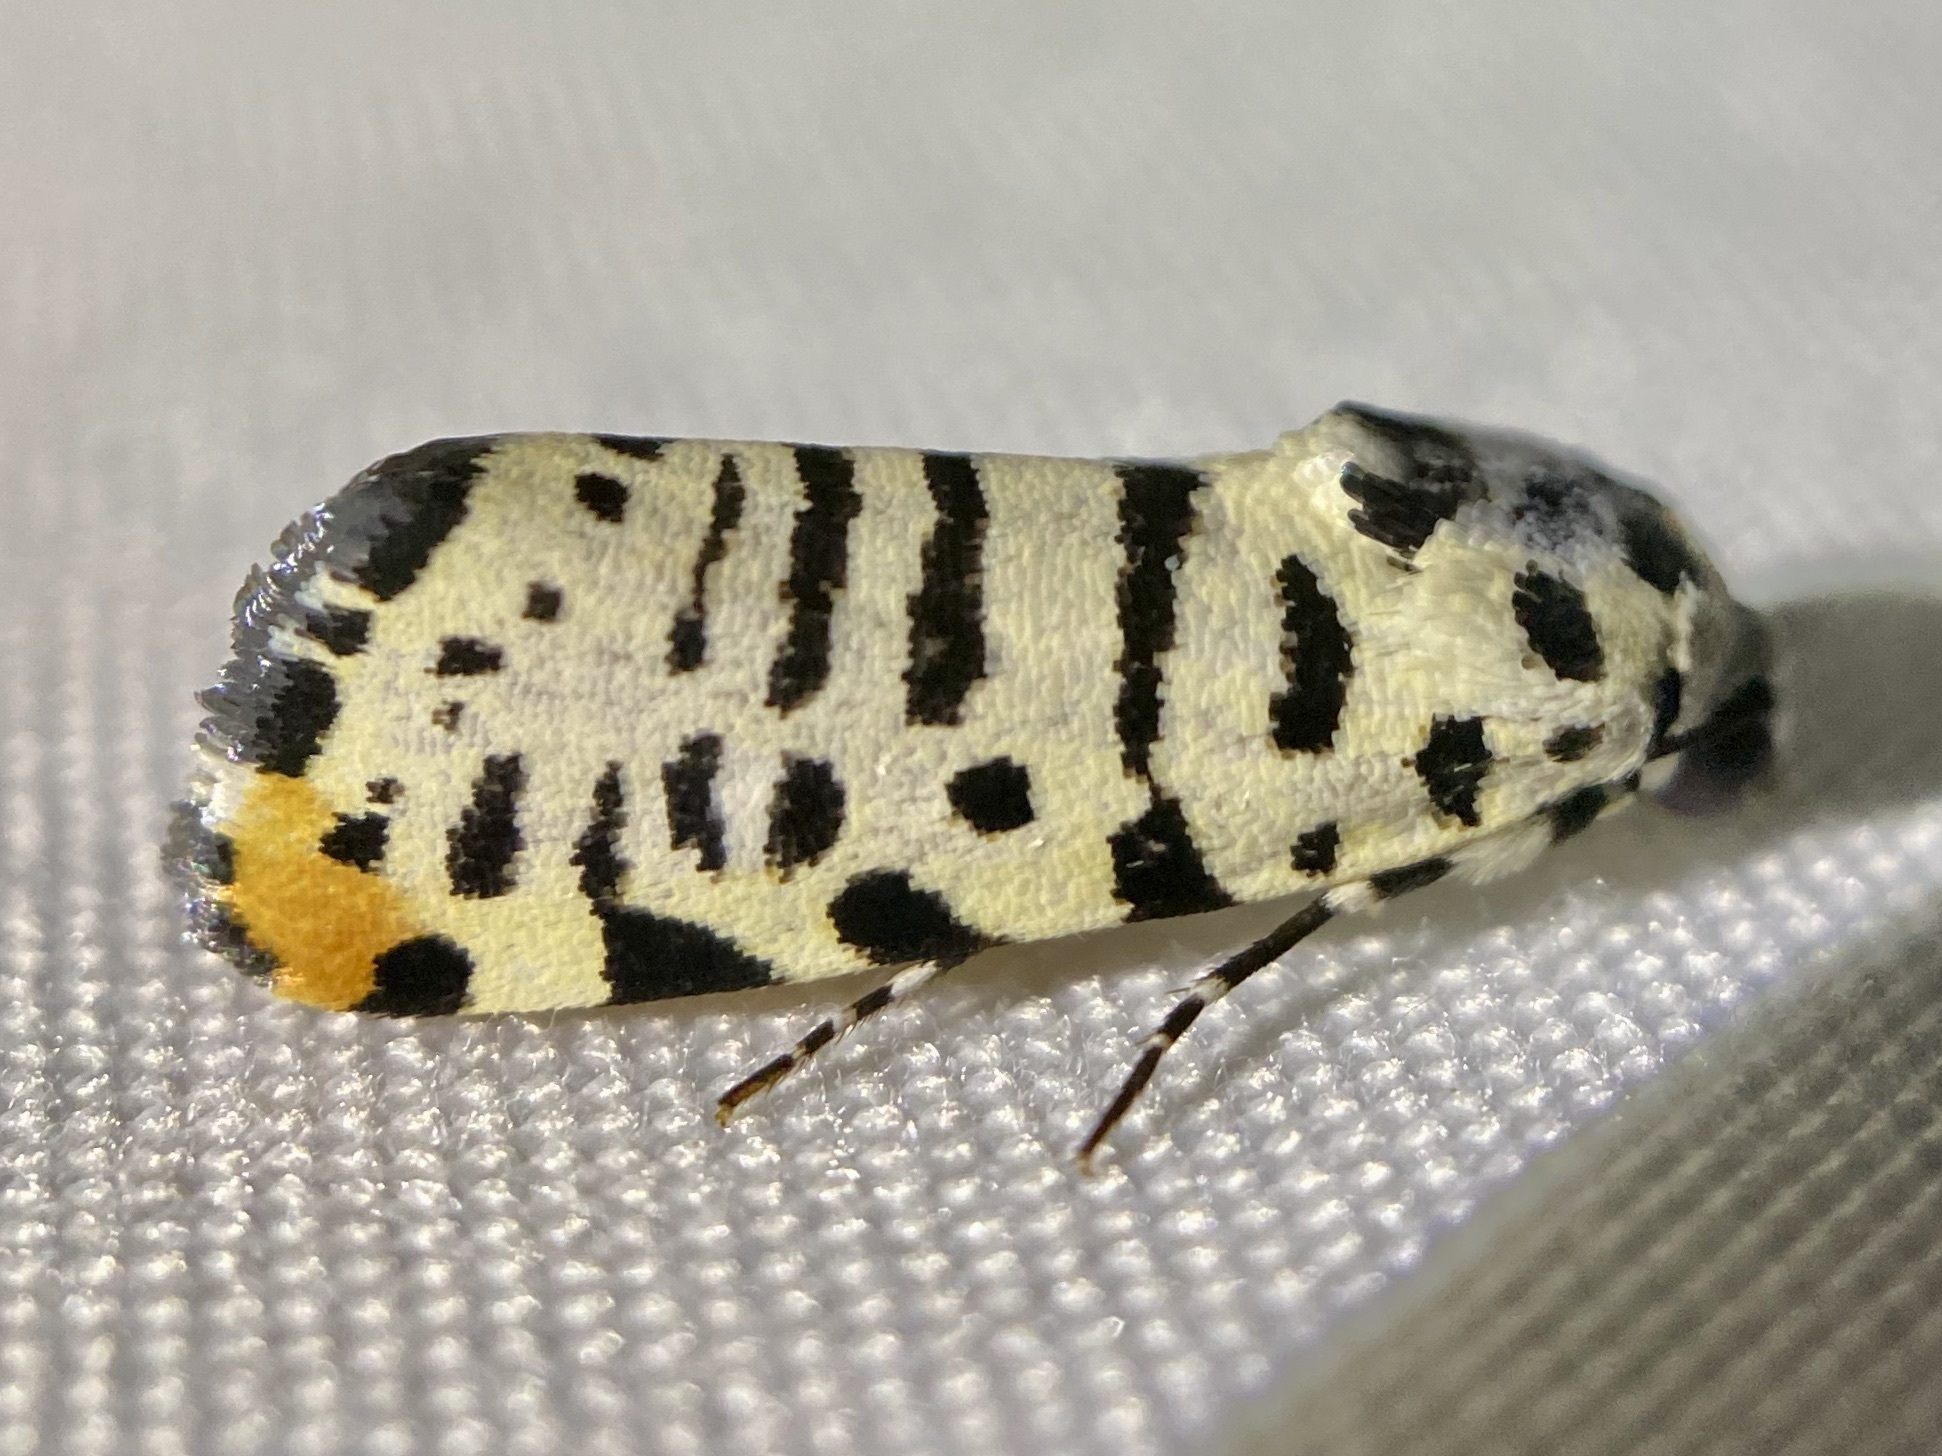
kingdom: Animalia
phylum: Arthropoda
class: Insecta
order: Lepidoptera
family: Noctuidae
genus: Acontia
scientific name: Acontia idella
